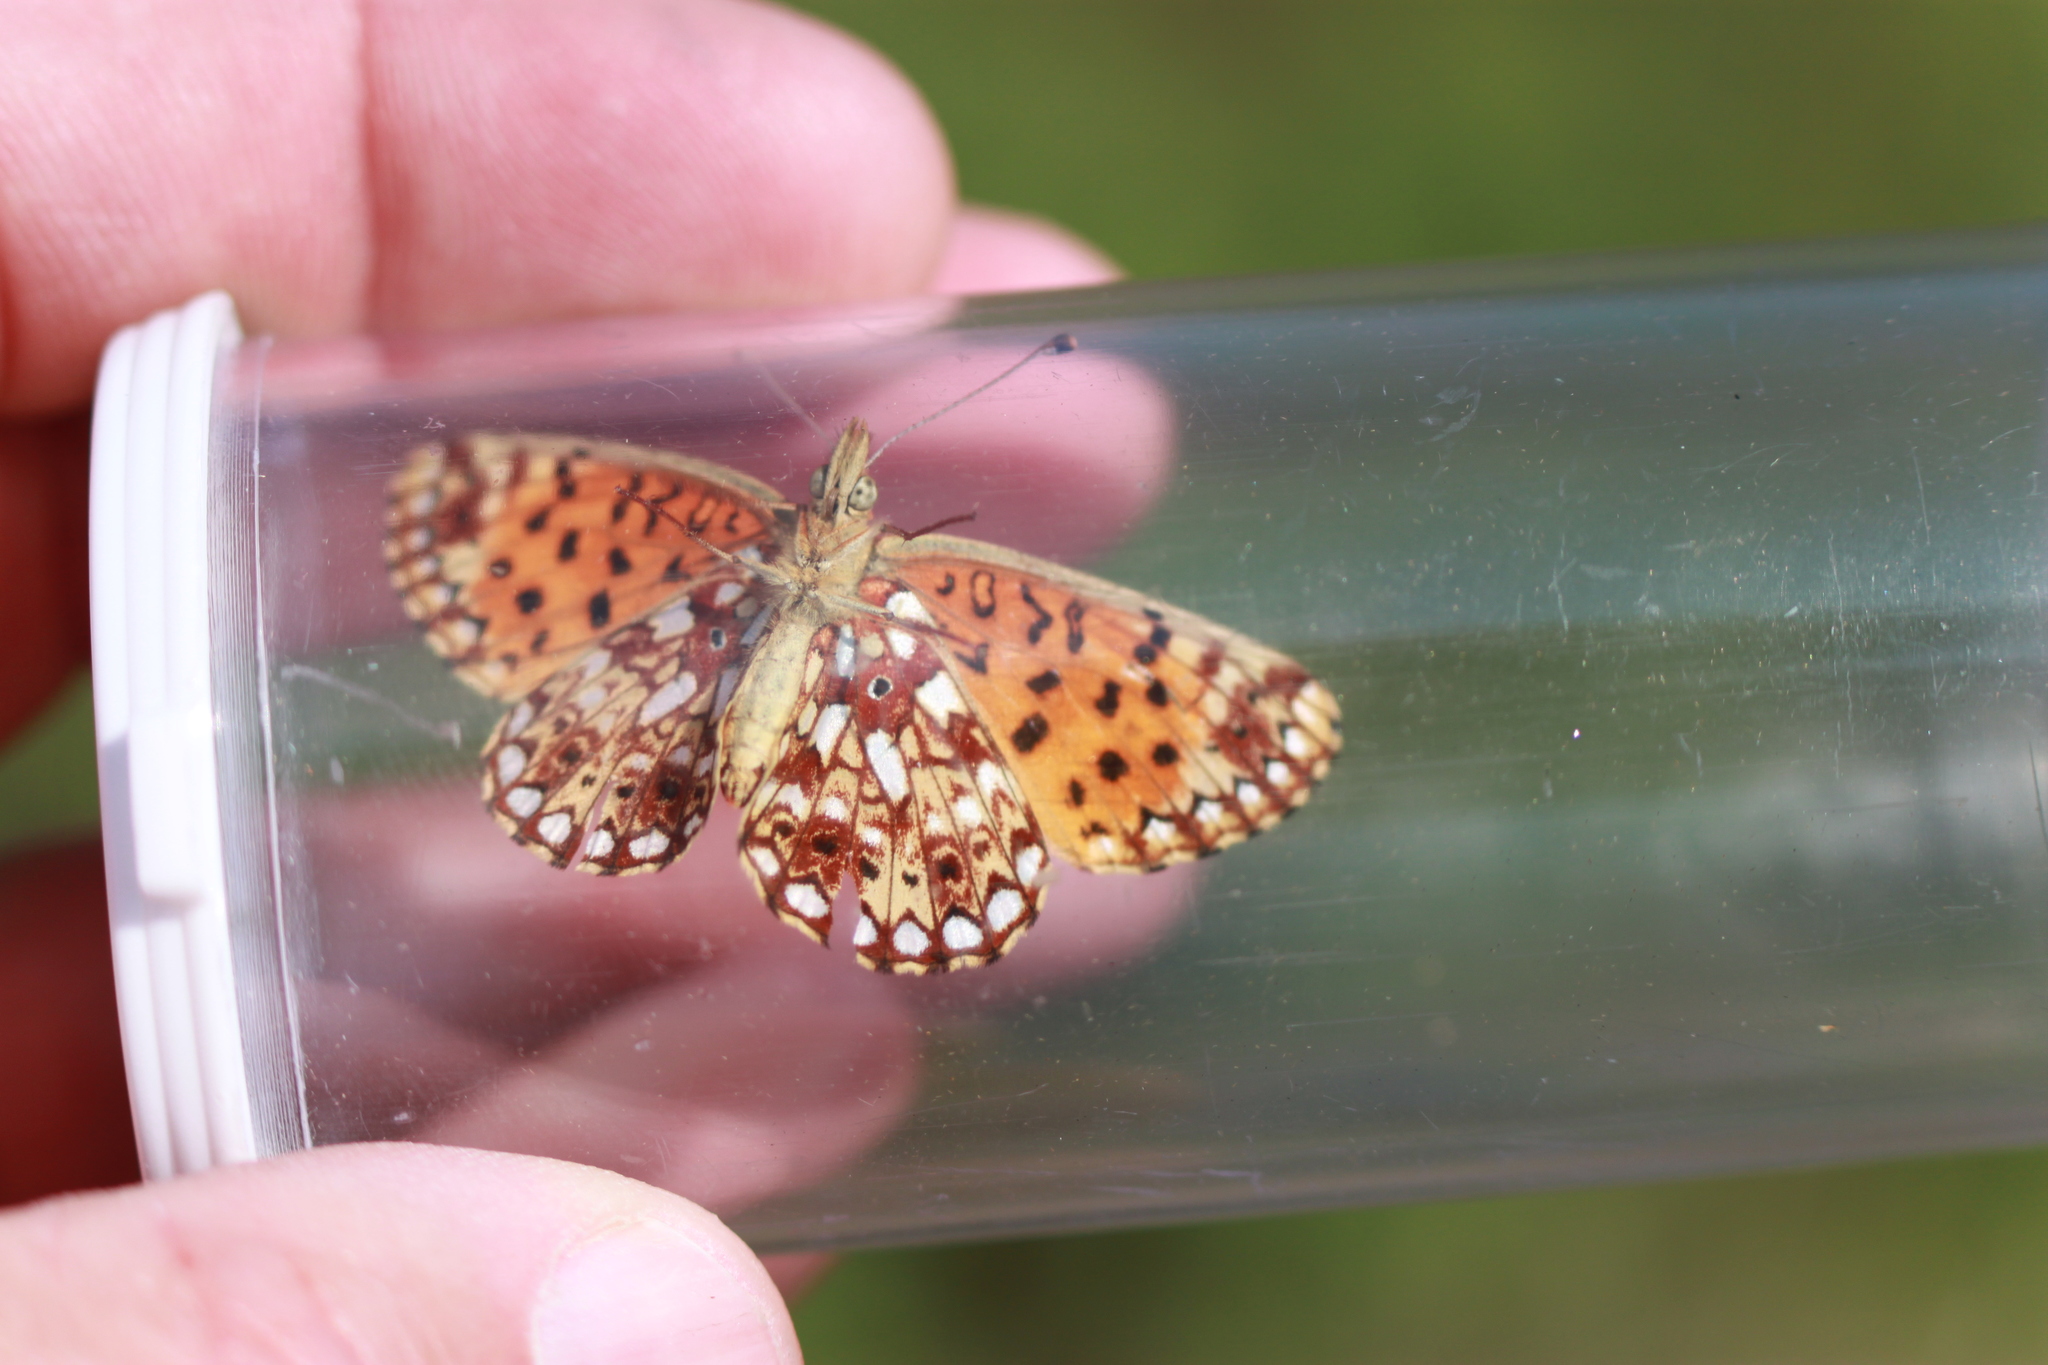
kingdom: Animalia
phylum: Arthropoda
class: Insecta
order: Lepidoptera
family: Nymphalidae
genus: Boloria
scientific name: Boloria
